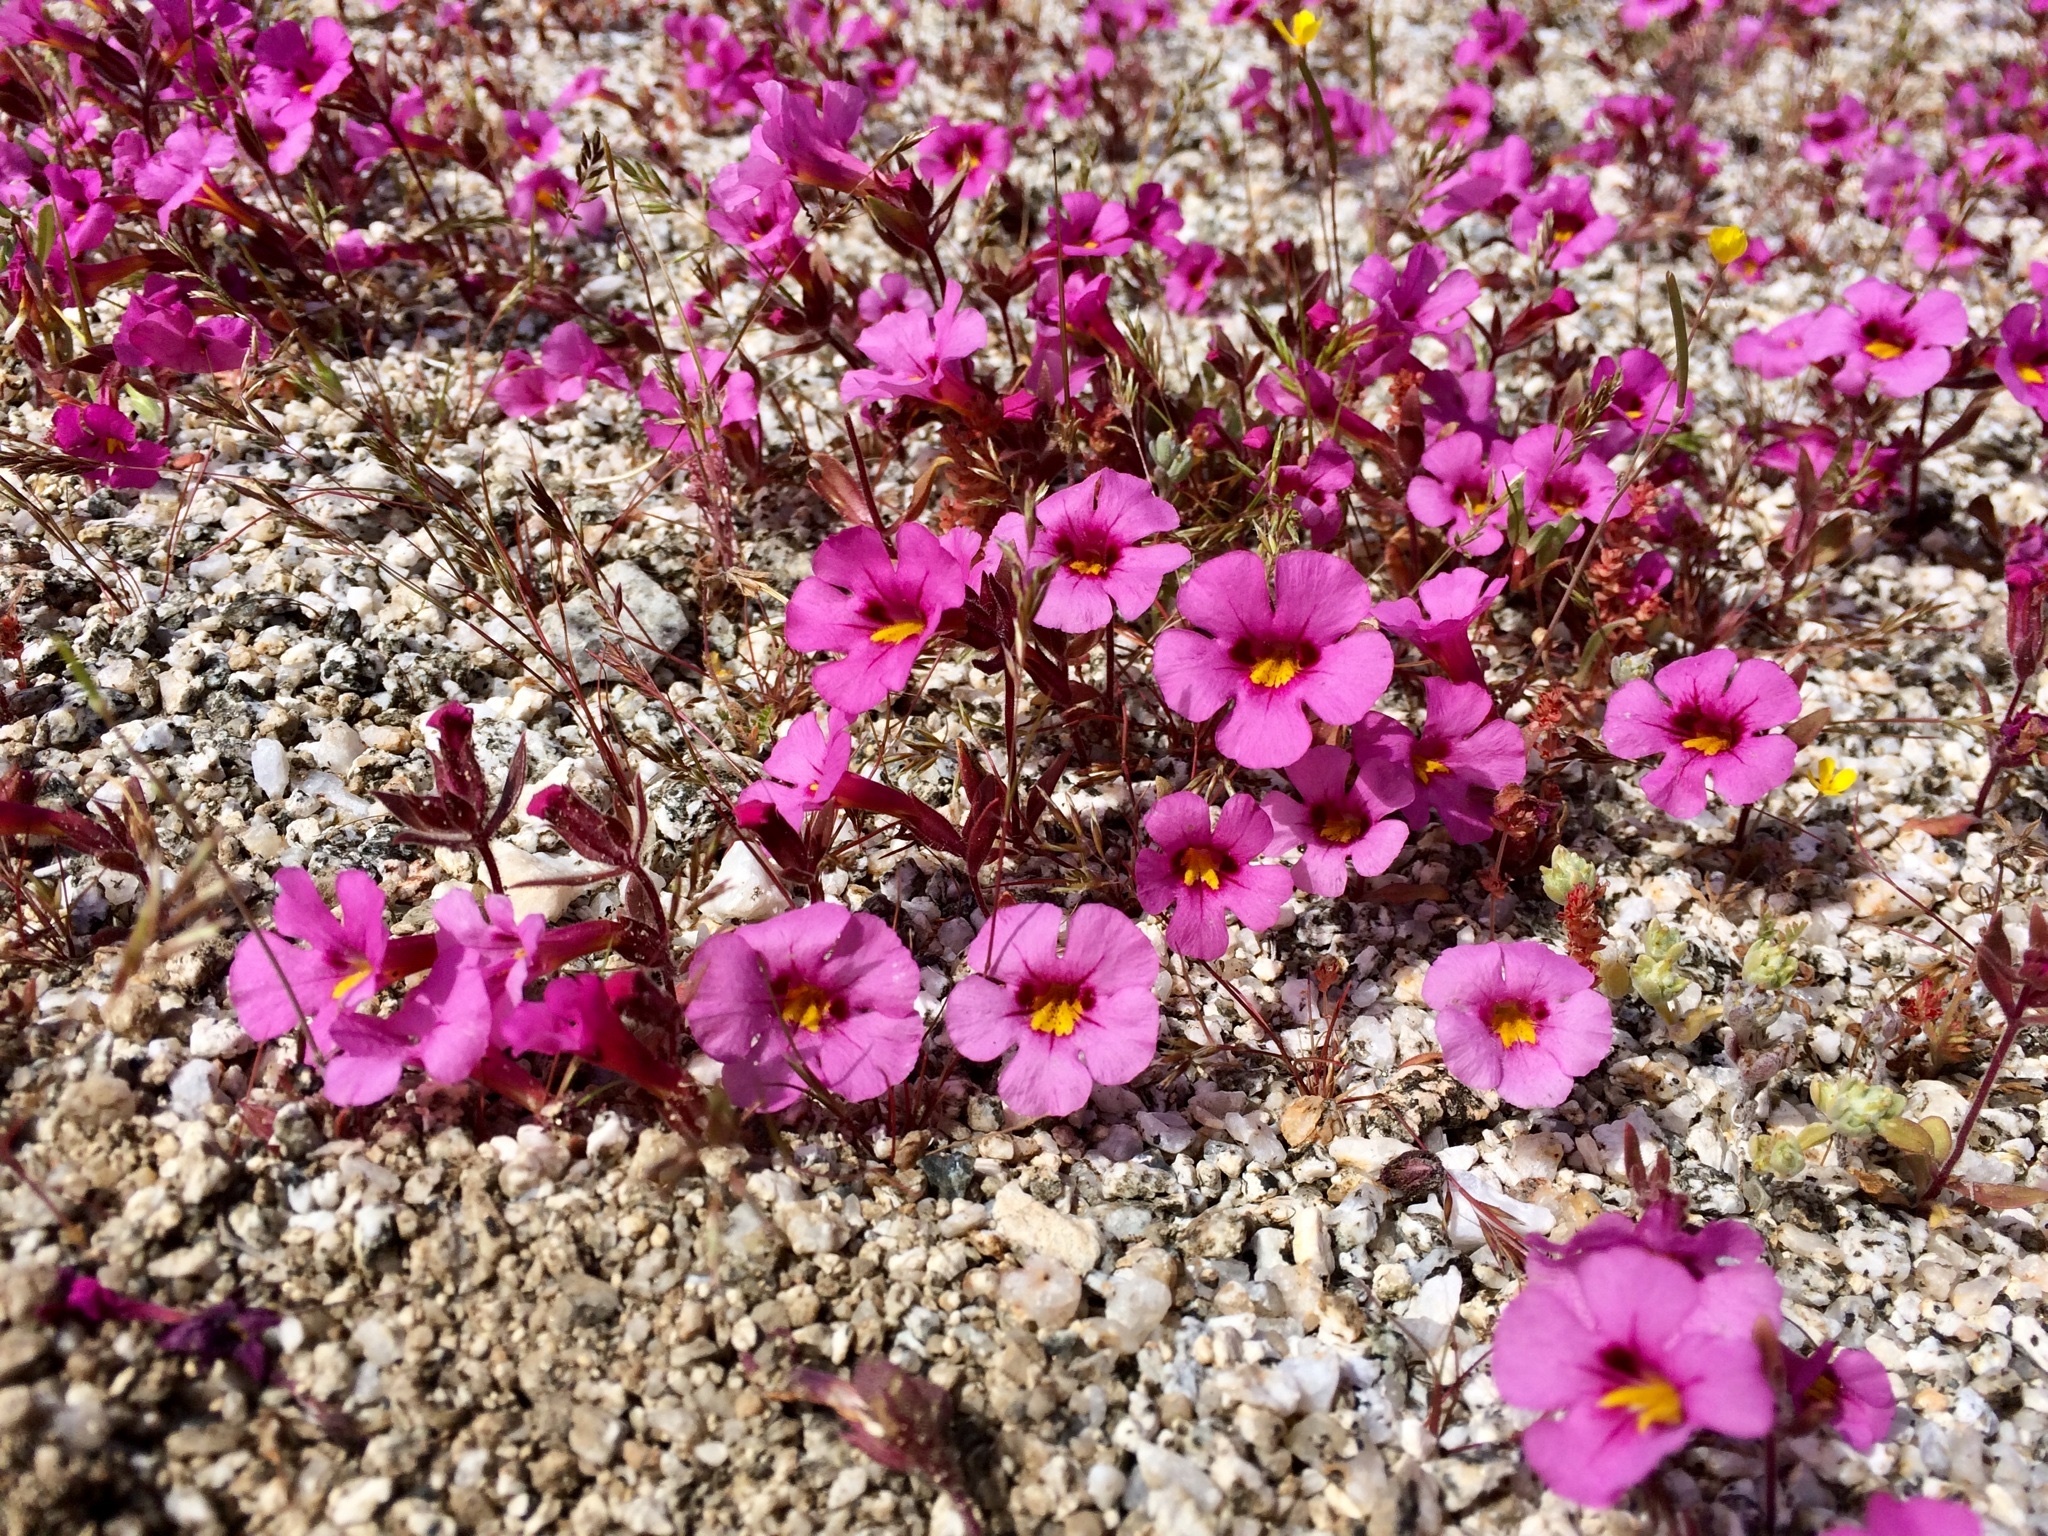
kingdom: Plantae
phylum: Tracheophyta
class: Magnoliopsida
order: Lamiales
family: Phrymaceae
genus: Diplacus
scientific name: Diplacus bigelovii
